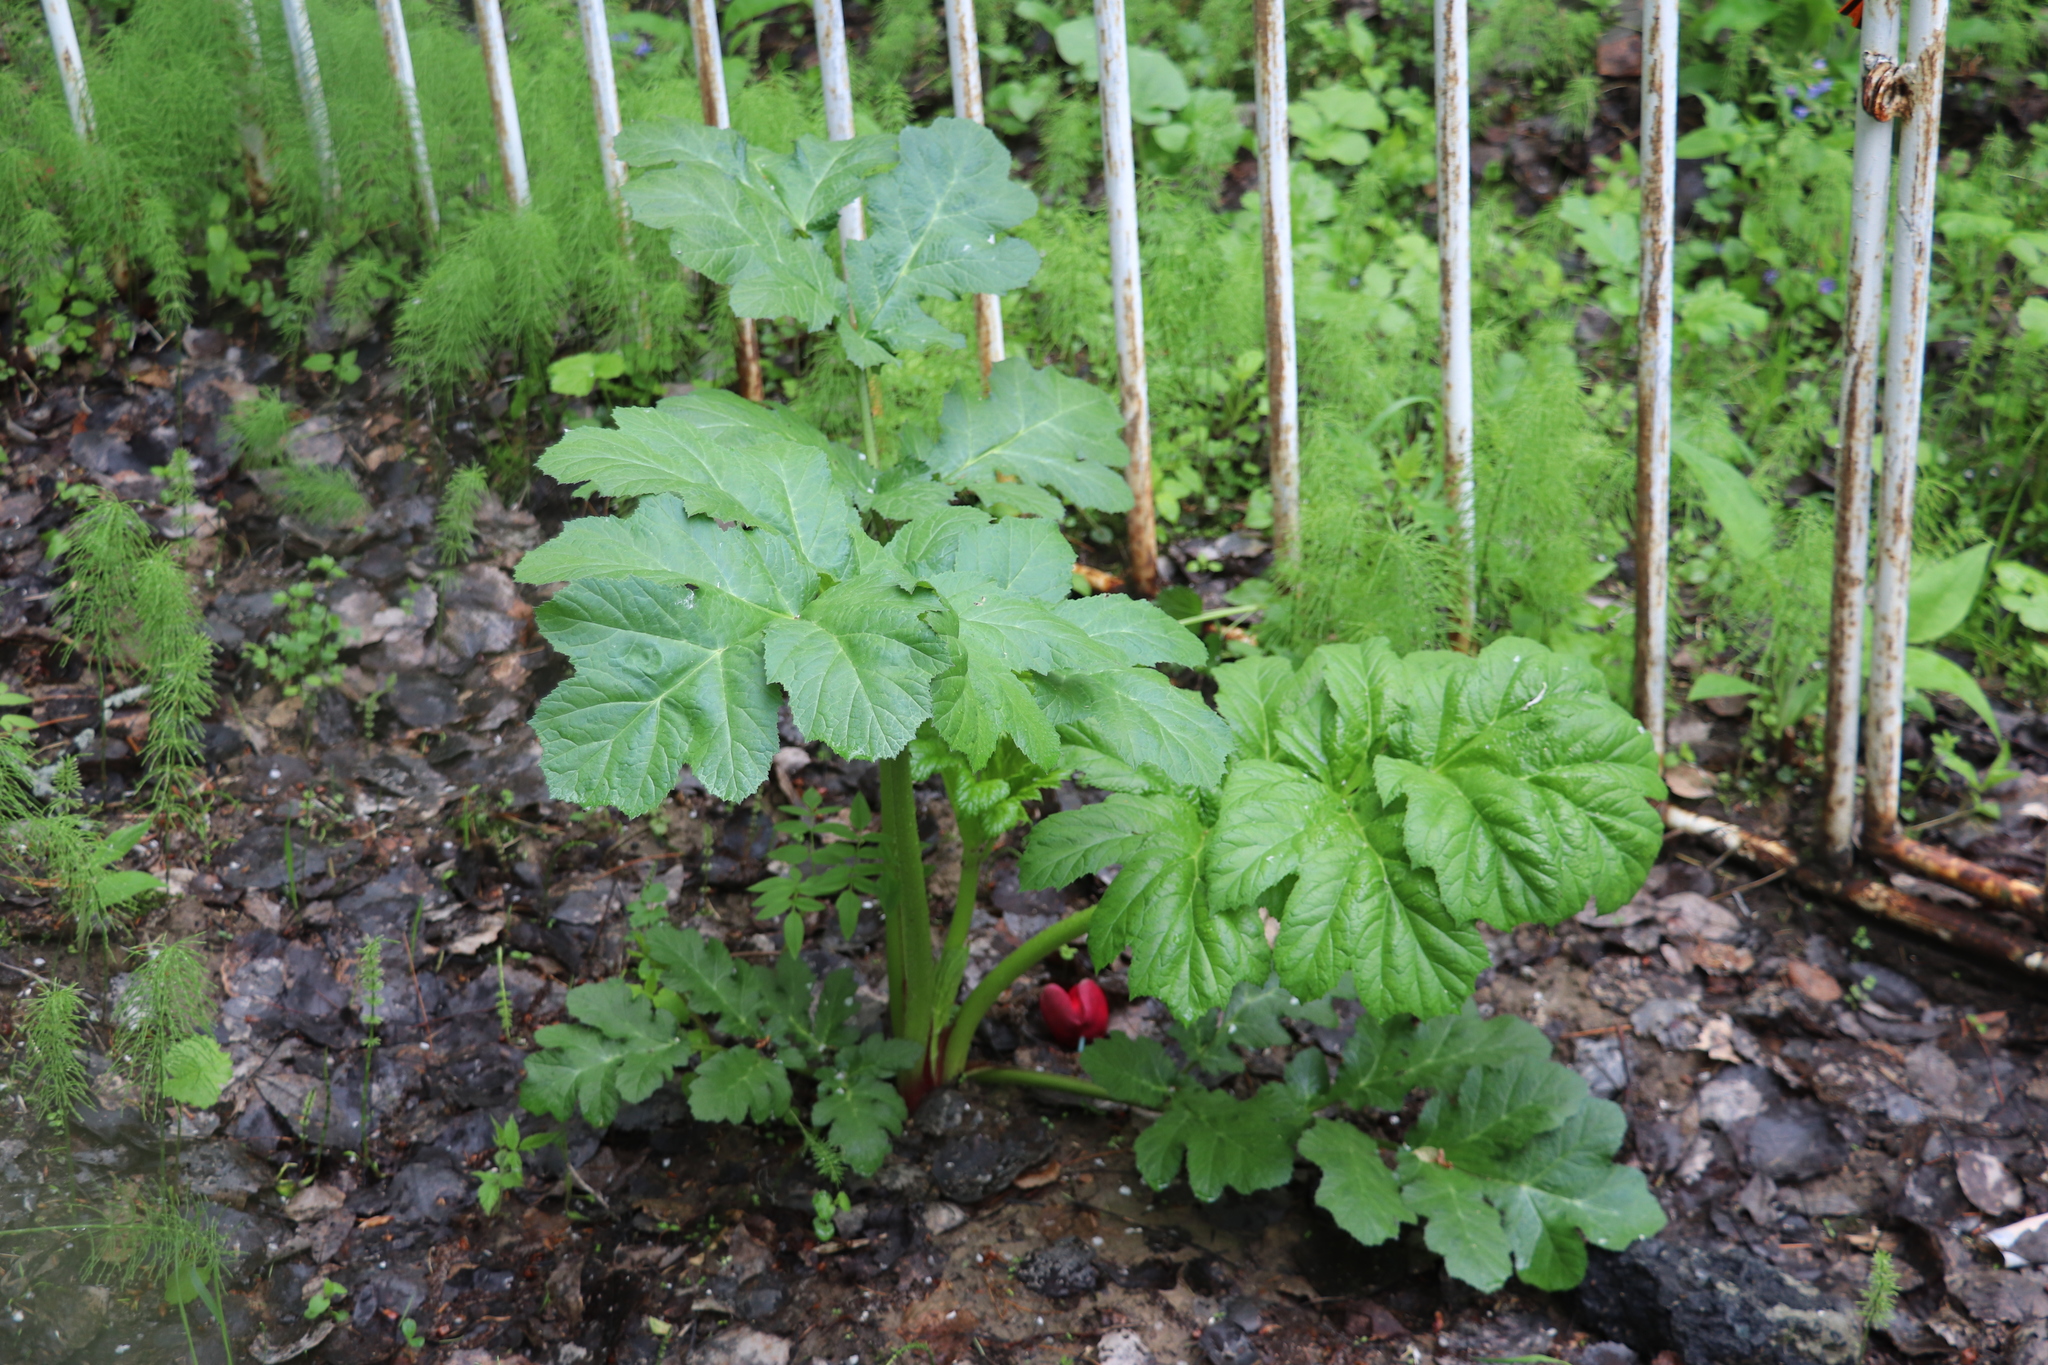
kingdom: Plantae
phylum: Tracheophyta
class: Magnoliopsida
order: Apiales
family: Apiaceae
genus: Heracleum
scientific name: Heracleum sosnowskyi
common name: Sosnowsky's hogweed
